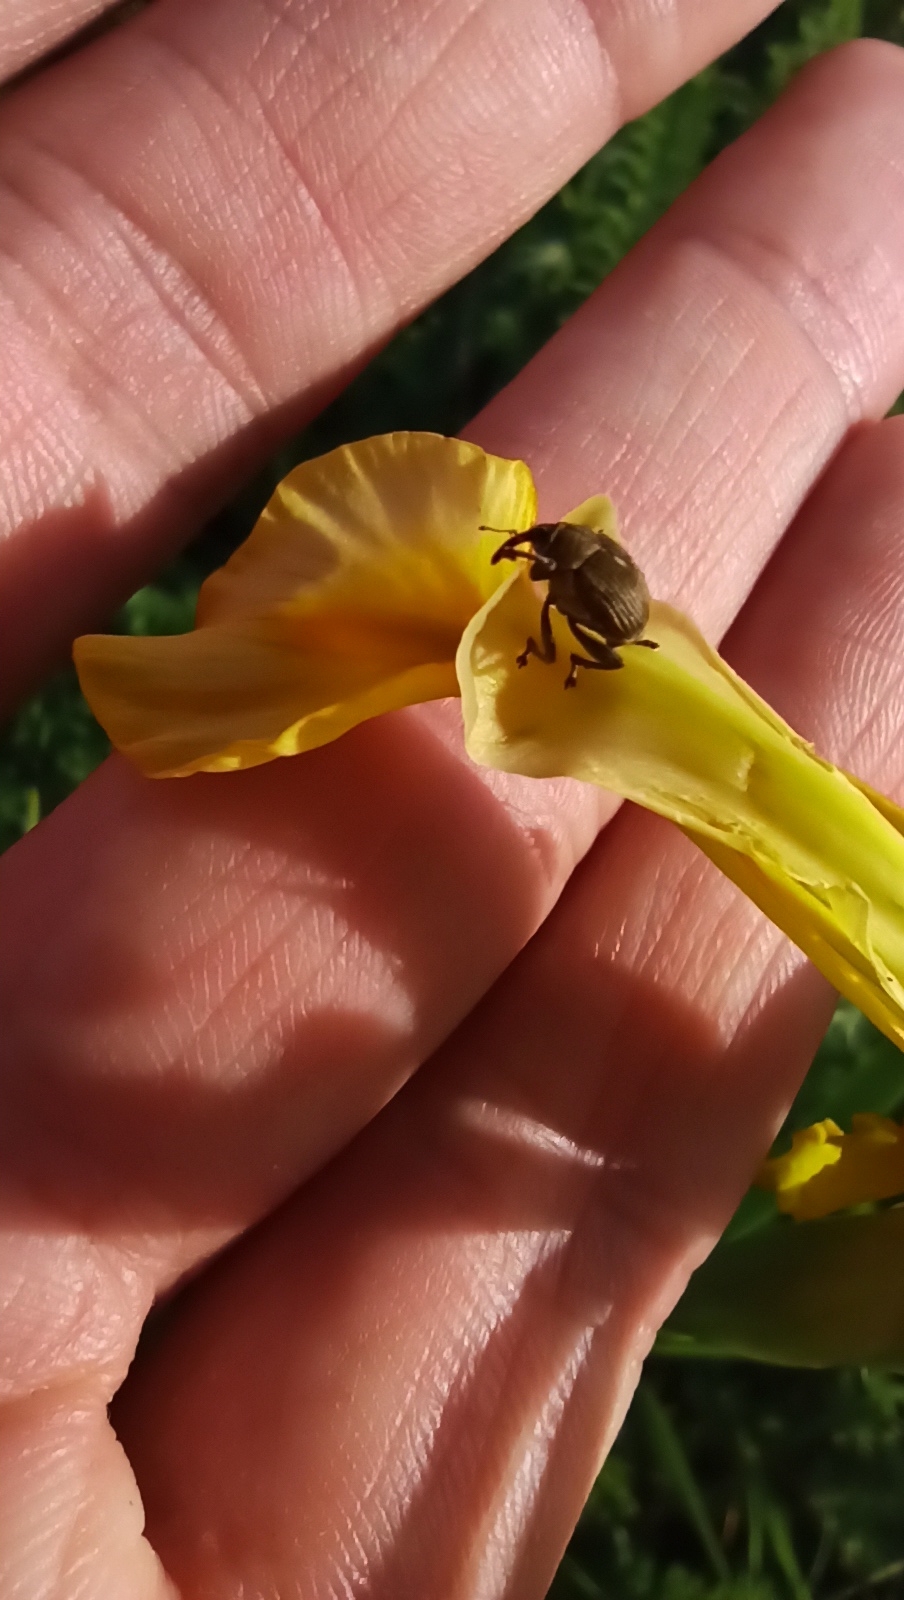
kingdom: Animalia
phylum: Arthropoda
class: Insecta
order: Coleoptera
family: Curculionidae
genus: Mononychus
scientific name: Mononychus punctumalbum
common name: Iris weevil
